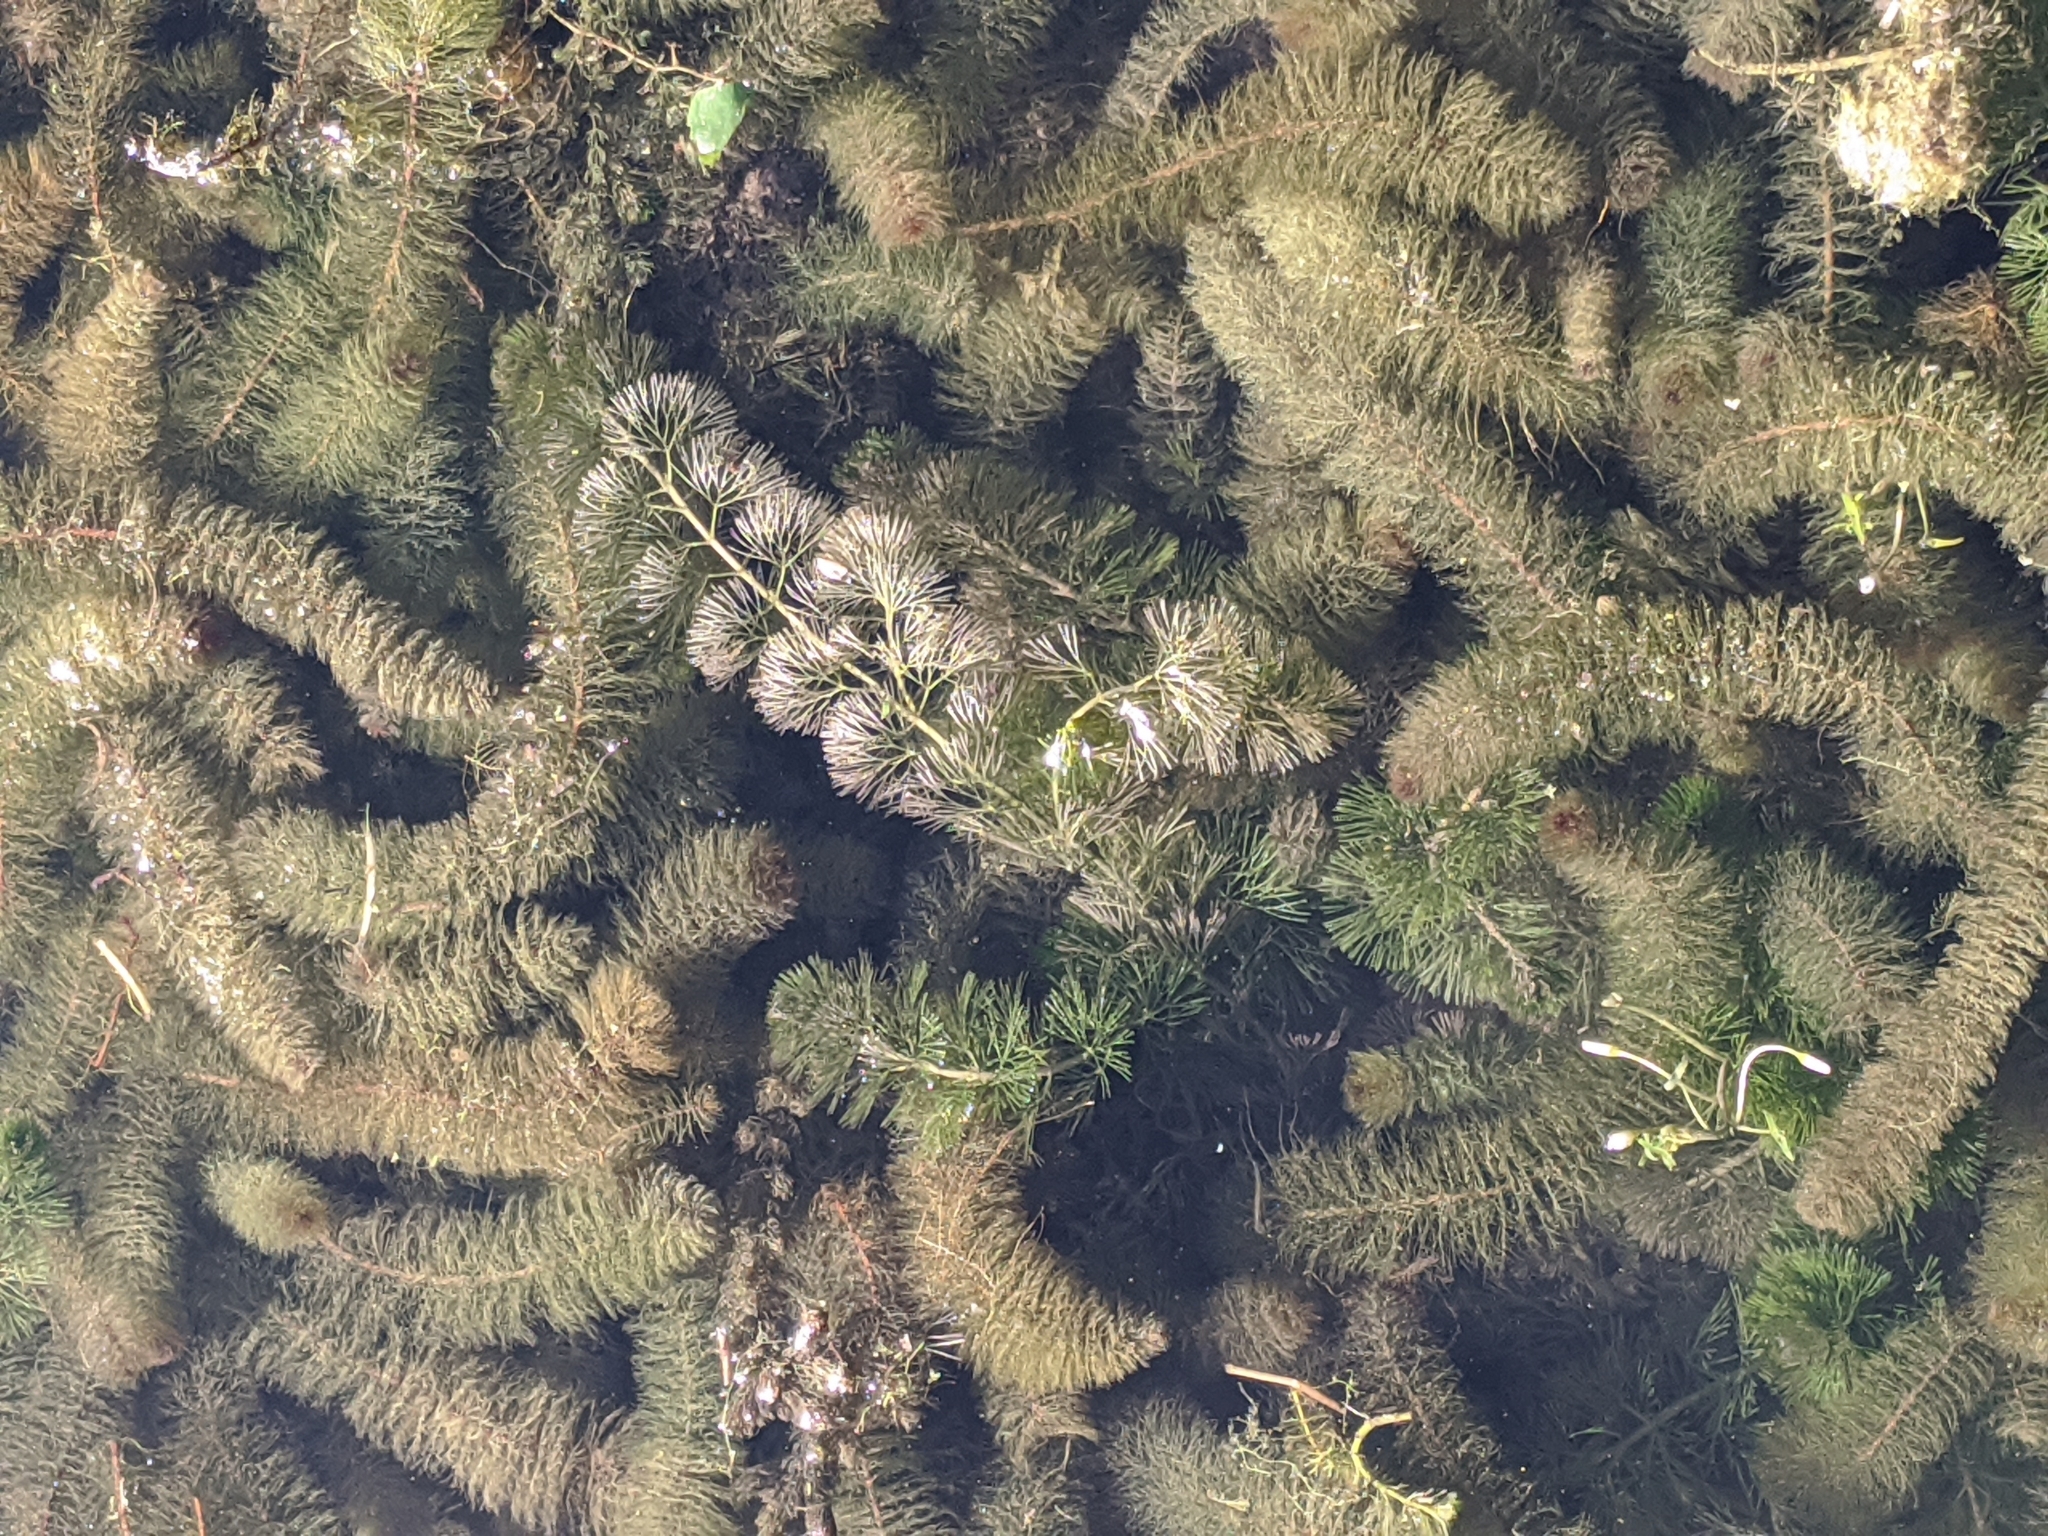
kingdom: Plantae
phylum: Tracheophyta
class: Magnoliopsida
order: Nymphaeales
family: Cabombaceae
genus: Cabomba
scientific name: Cabomba caroliniana
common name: Fanwort
